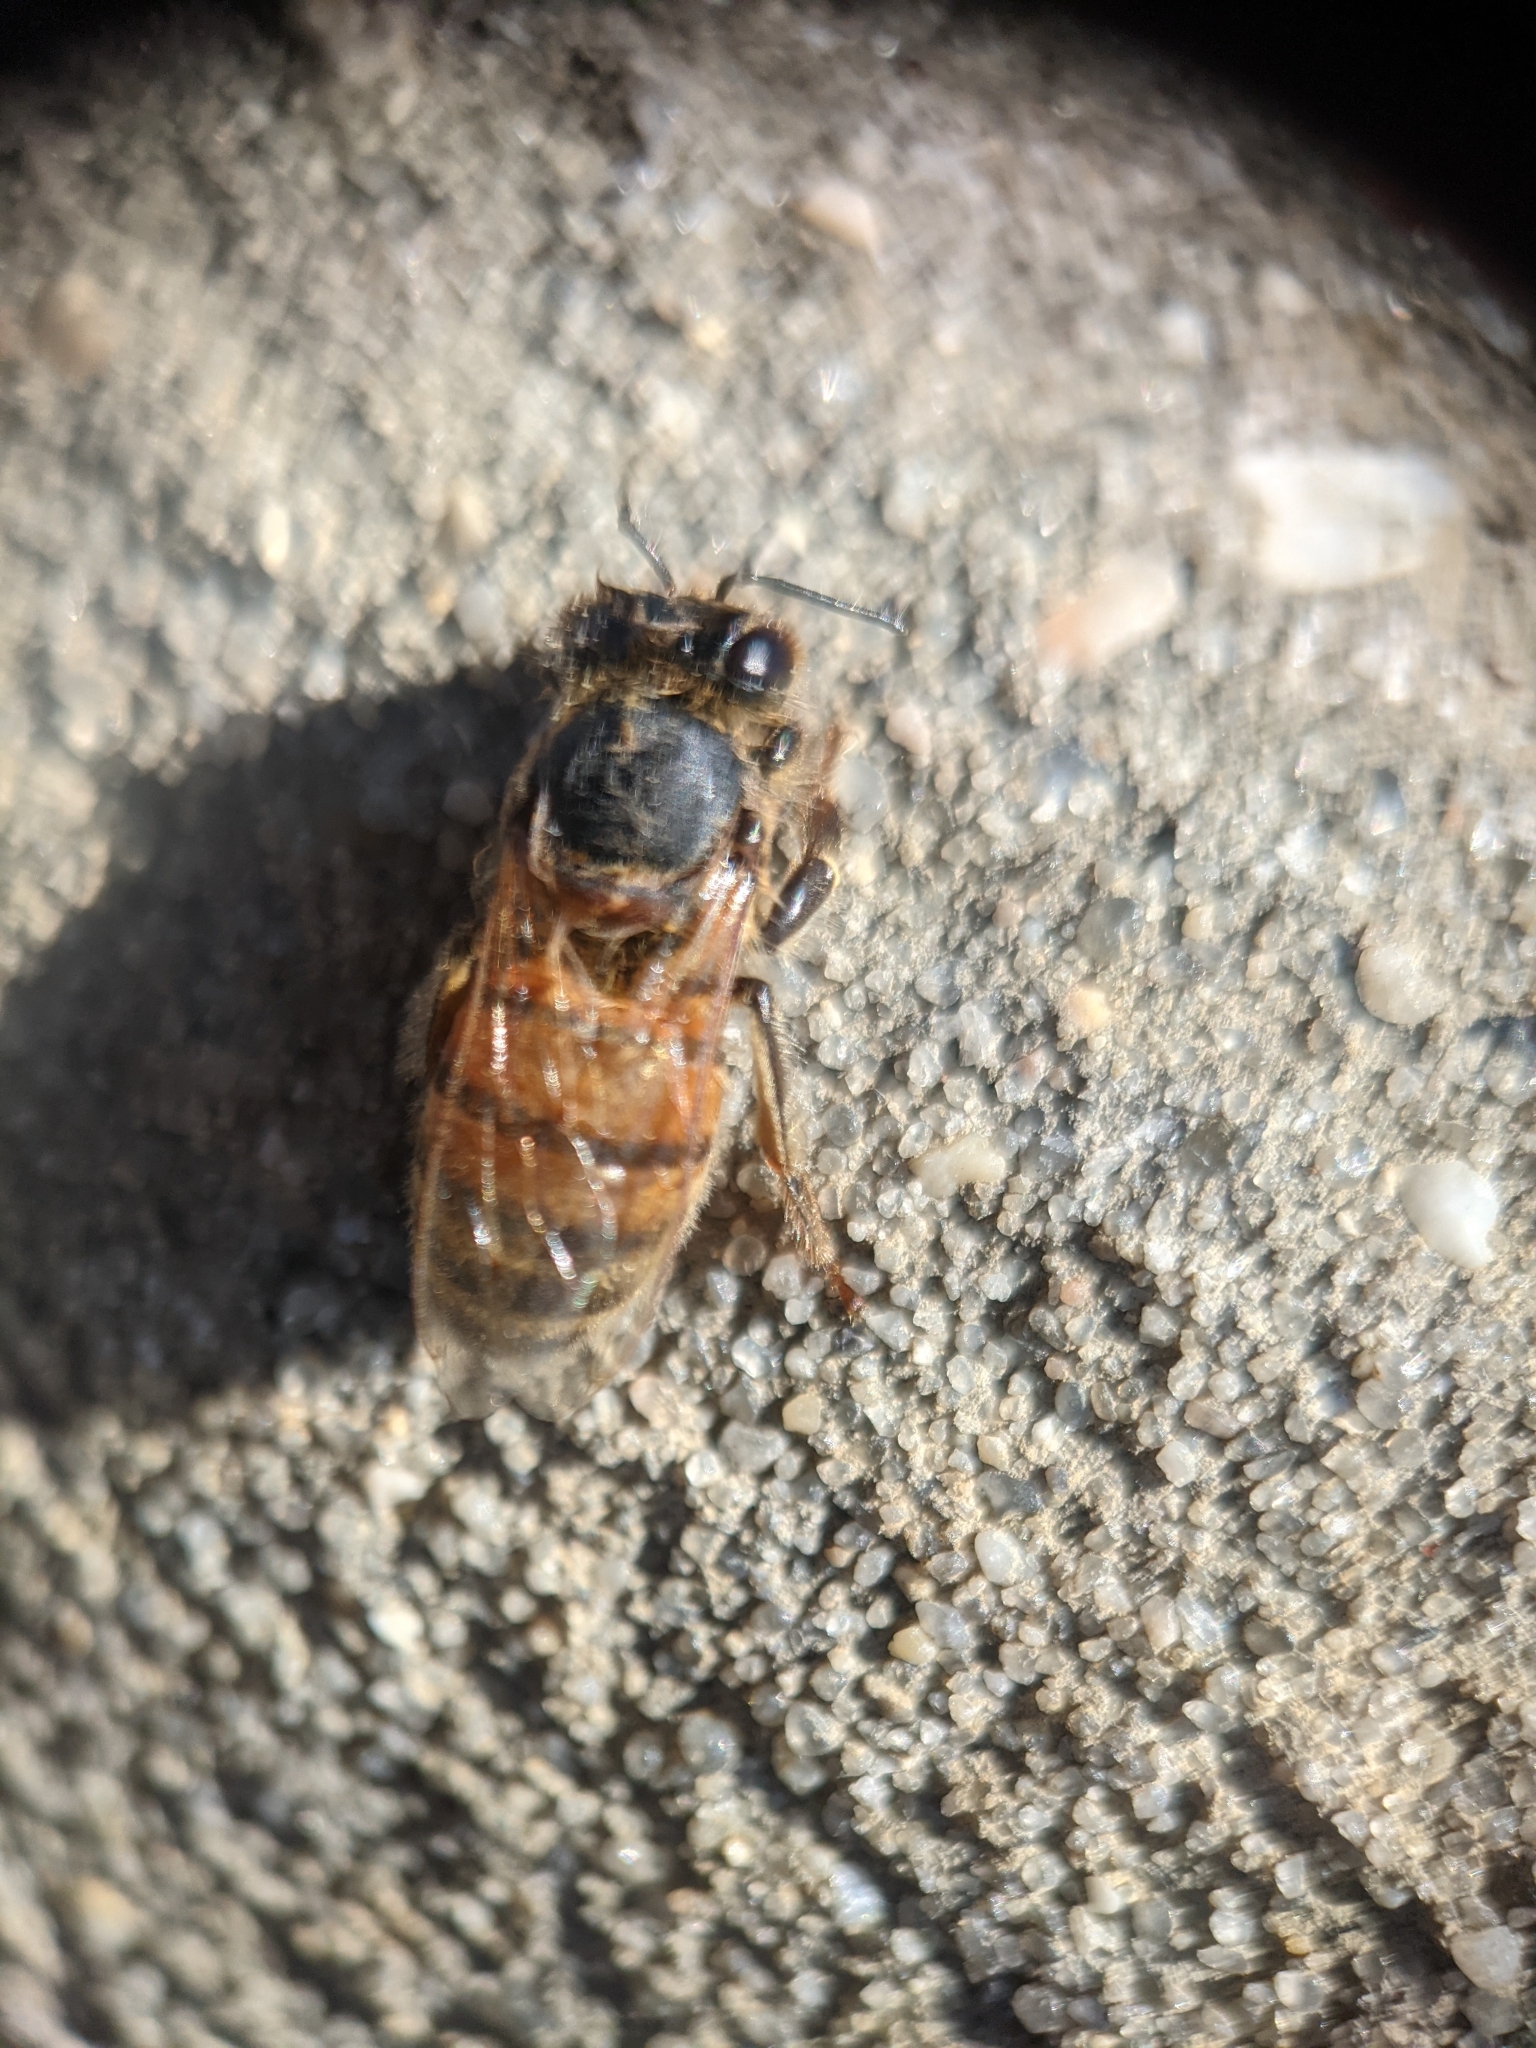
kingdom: Animalia
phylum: Arthropoda
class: Insecta
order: Hymenoptera
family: Apidae
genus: Apis
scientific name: Apis mellifera
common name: Honey bee
